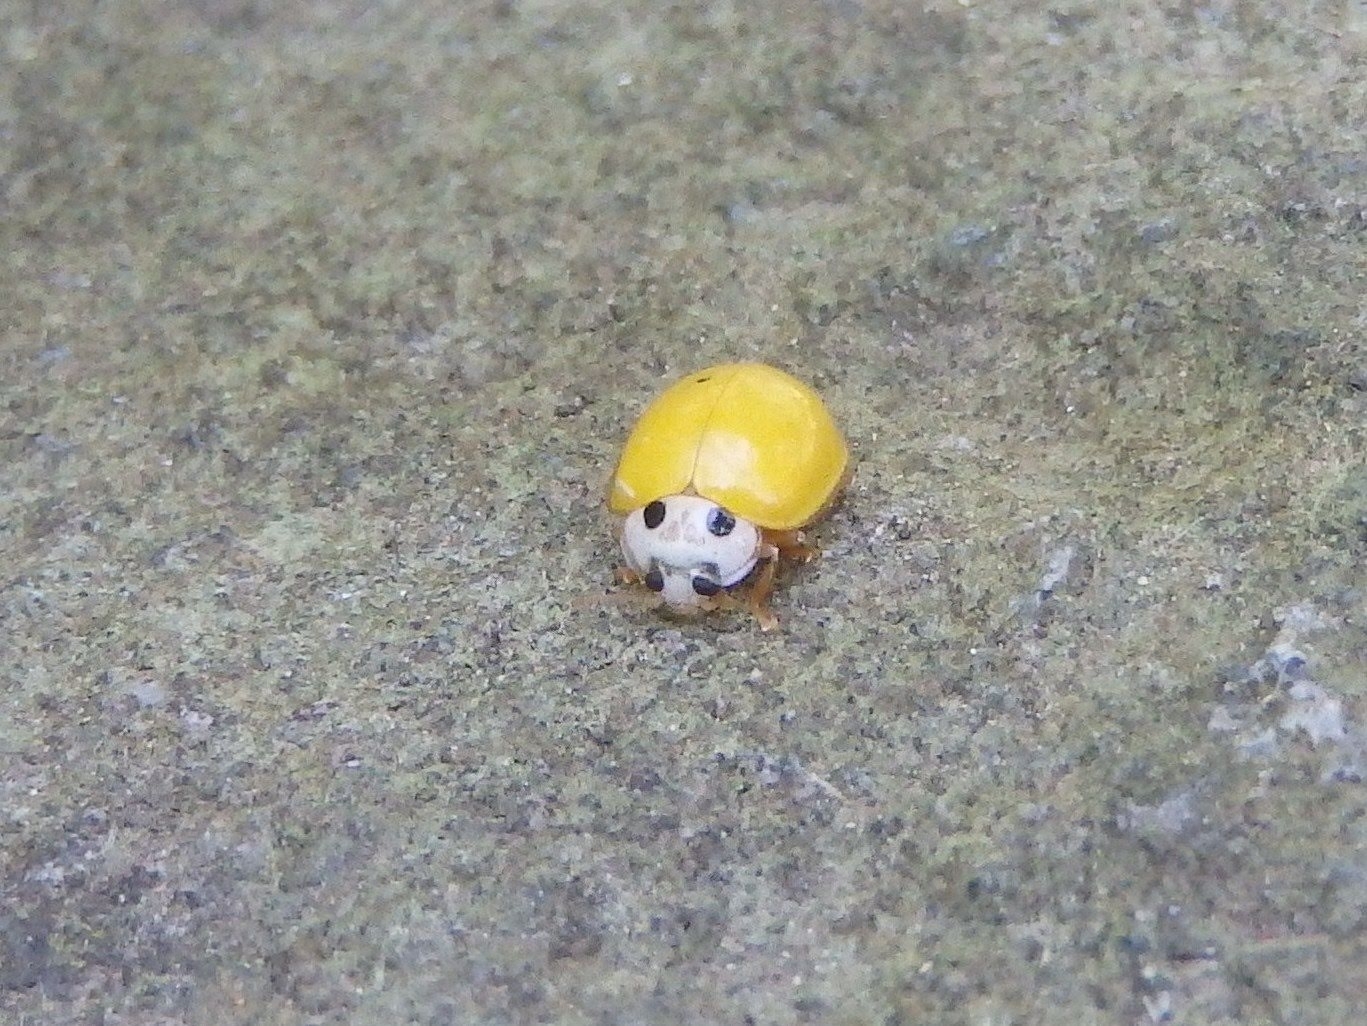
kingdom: Animalia
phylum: Arthropoda
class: Insecta
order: Coleoptera
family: Coccinellidae
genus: Illeis
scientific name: Illeis koebelei
